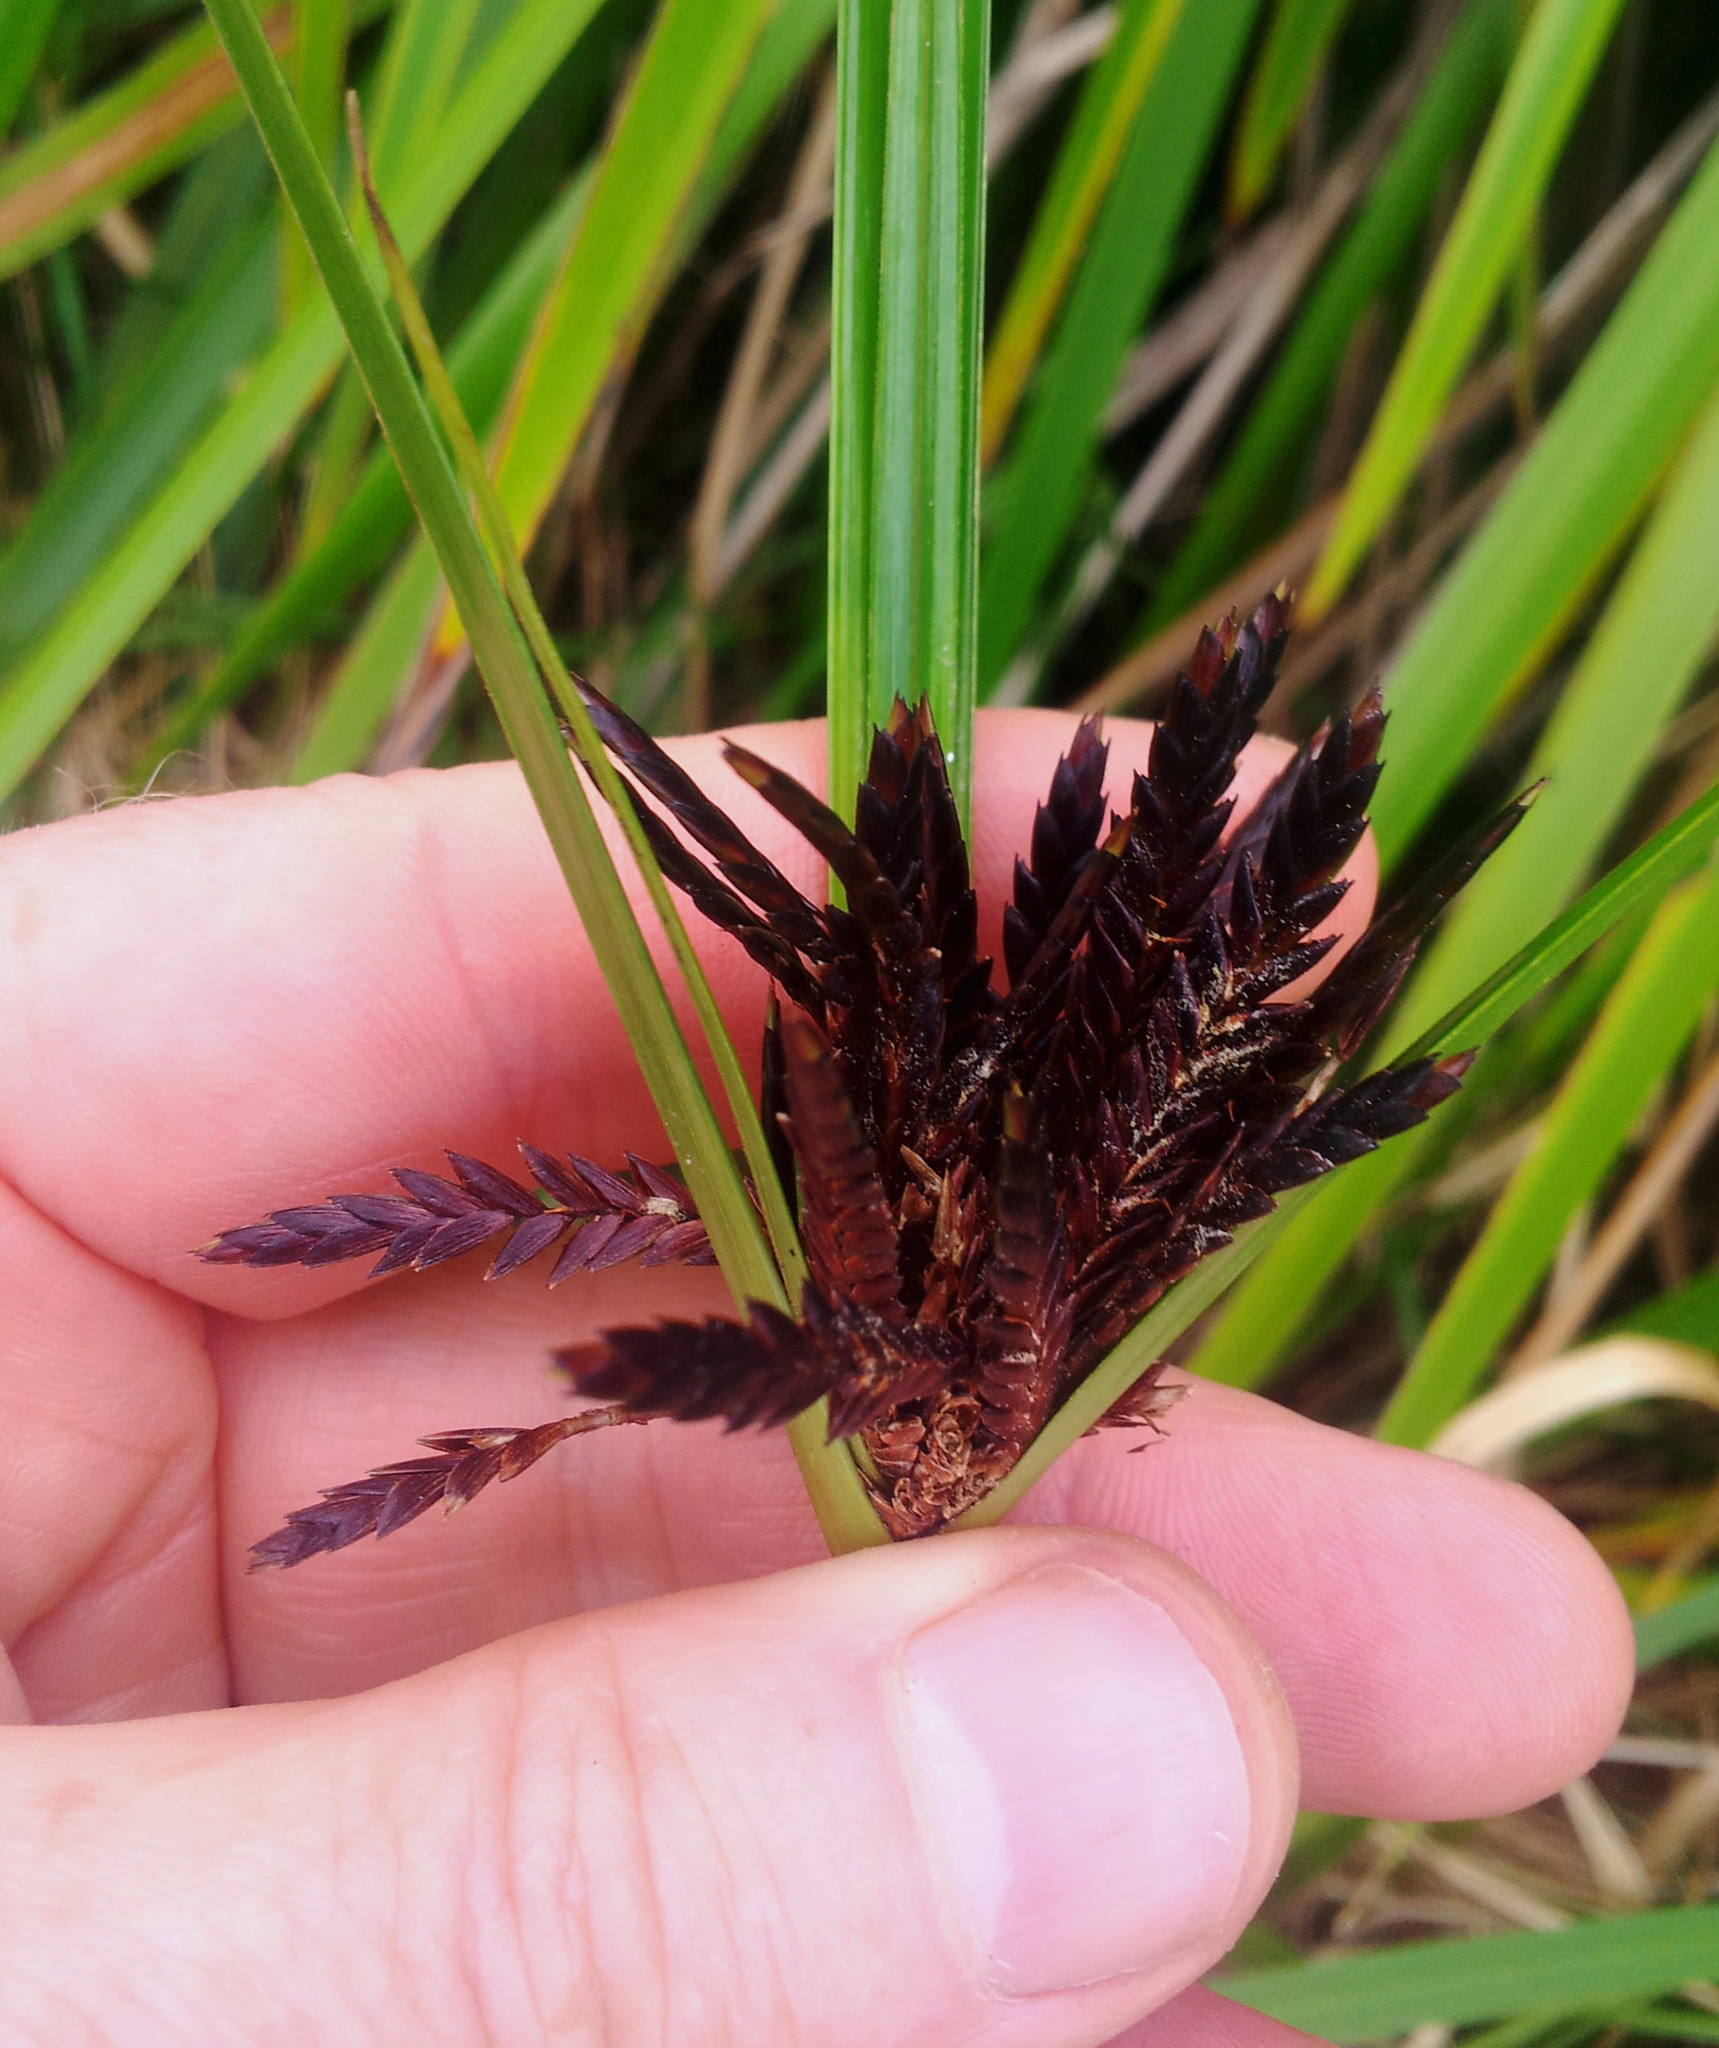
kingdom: Fungi
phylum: Basidiomycota
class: Microbotryomycetes
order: Microbotryales
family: Microbotryaceae
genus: Bauerago
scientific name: Bauerago gardneri
